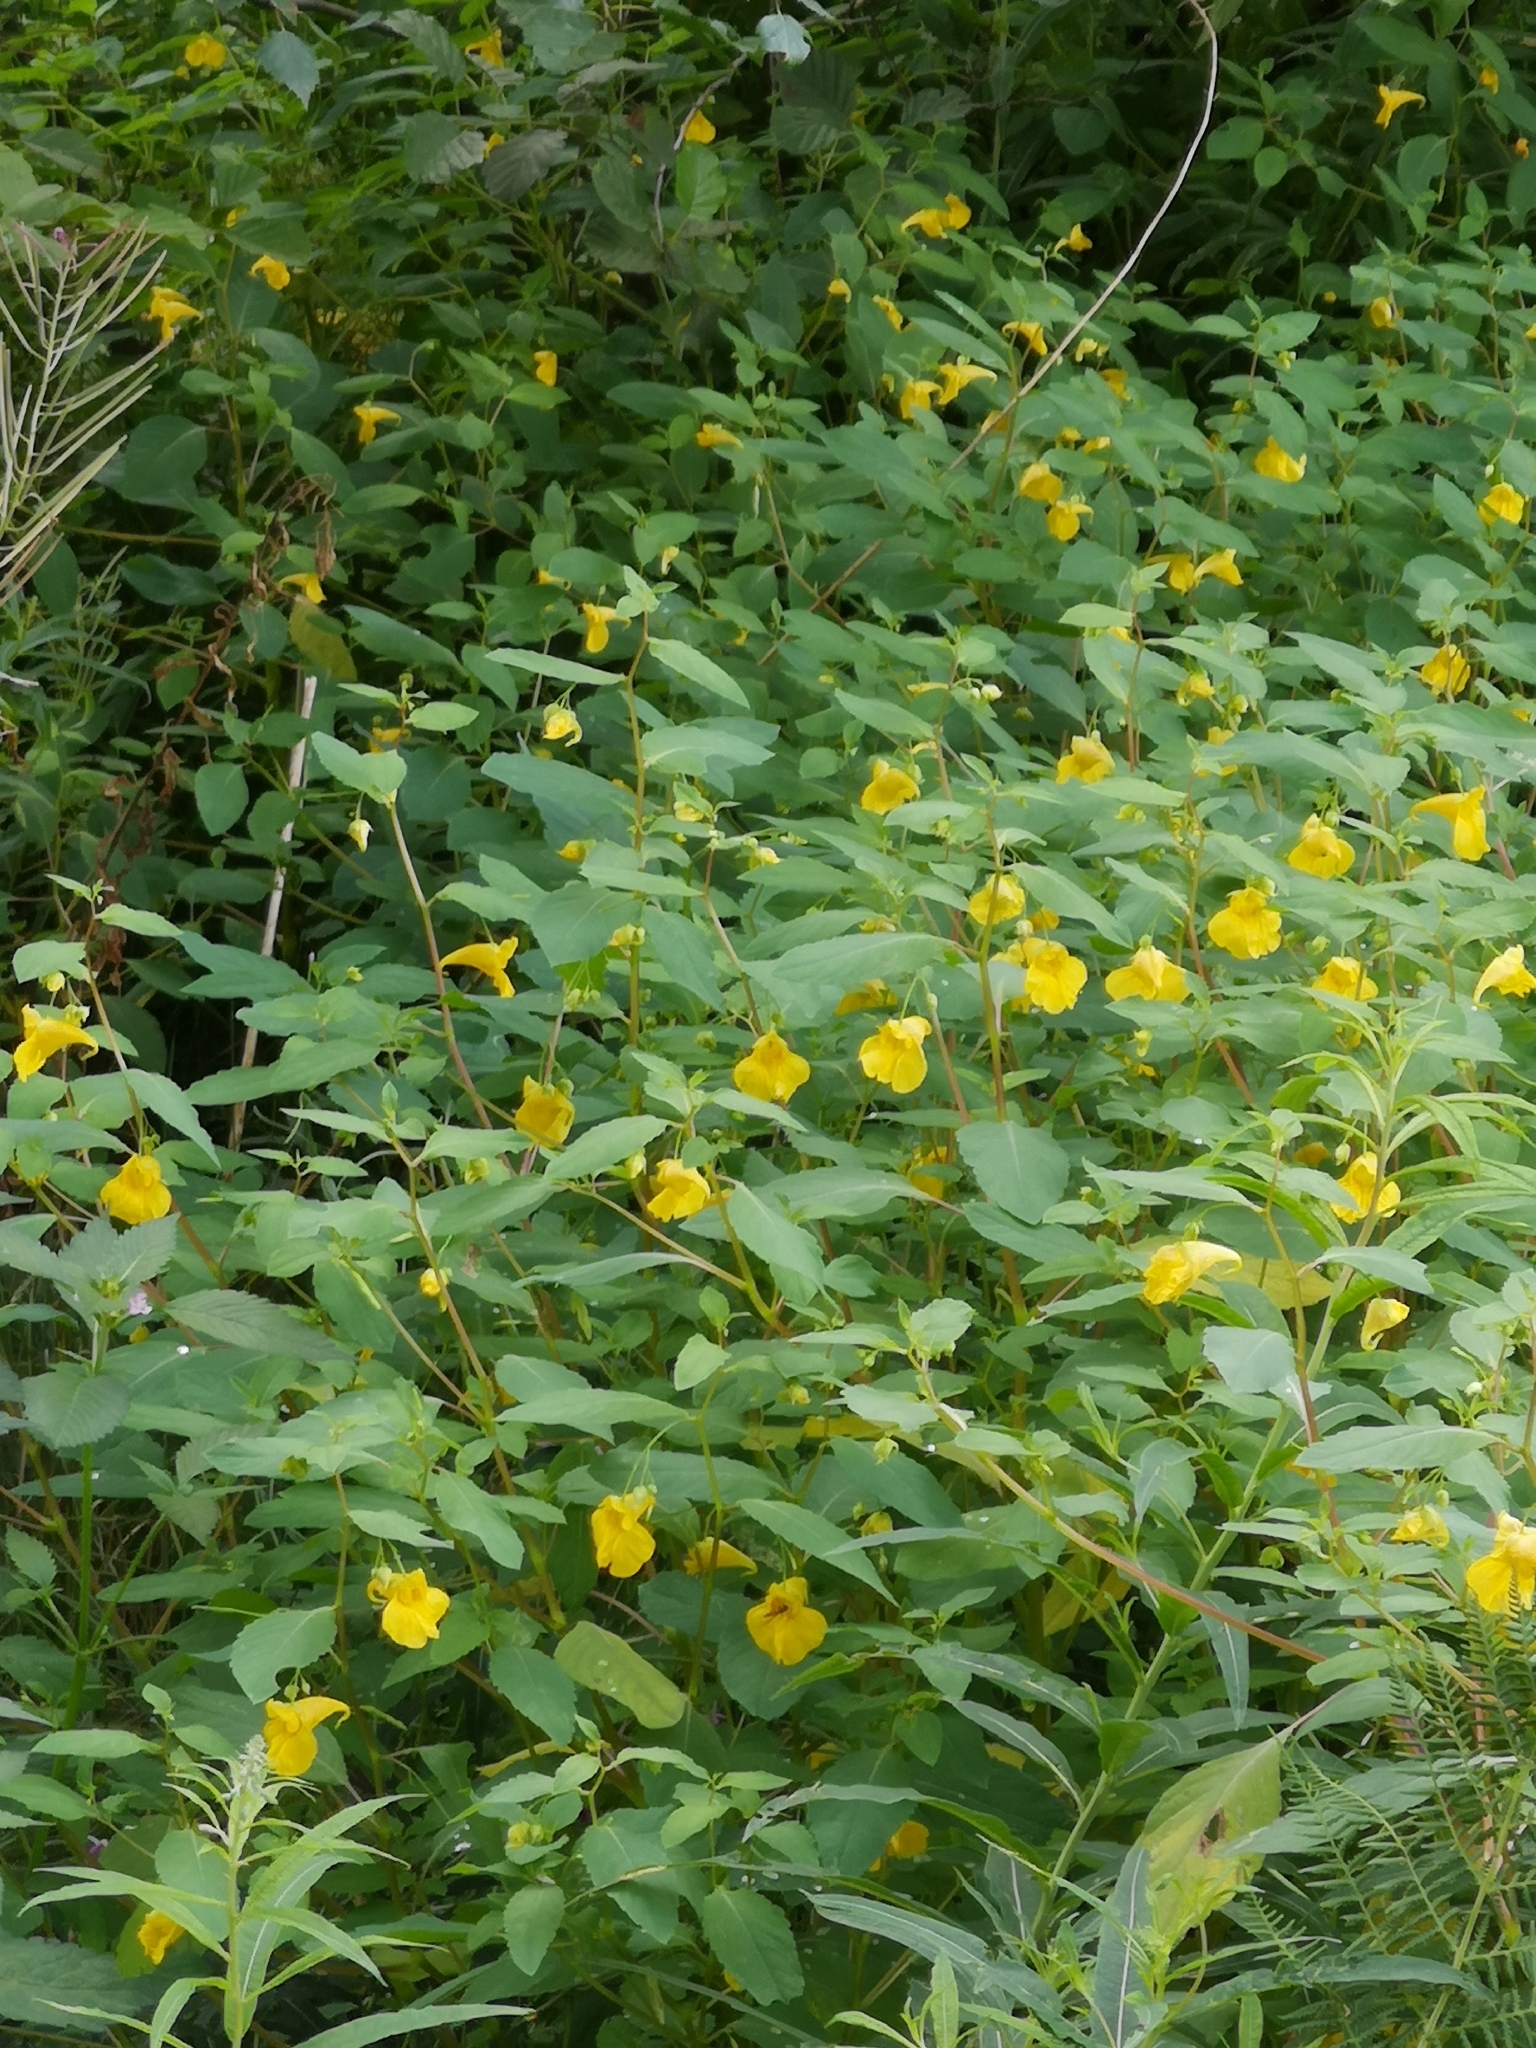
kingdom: Plantae
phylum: Tracheophyta
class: Magnoliopsida
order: Ericales
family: Balsaminaceae
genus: Impatiens
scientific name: Impatiens noli-tangere
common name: Touch-me-not balsam
